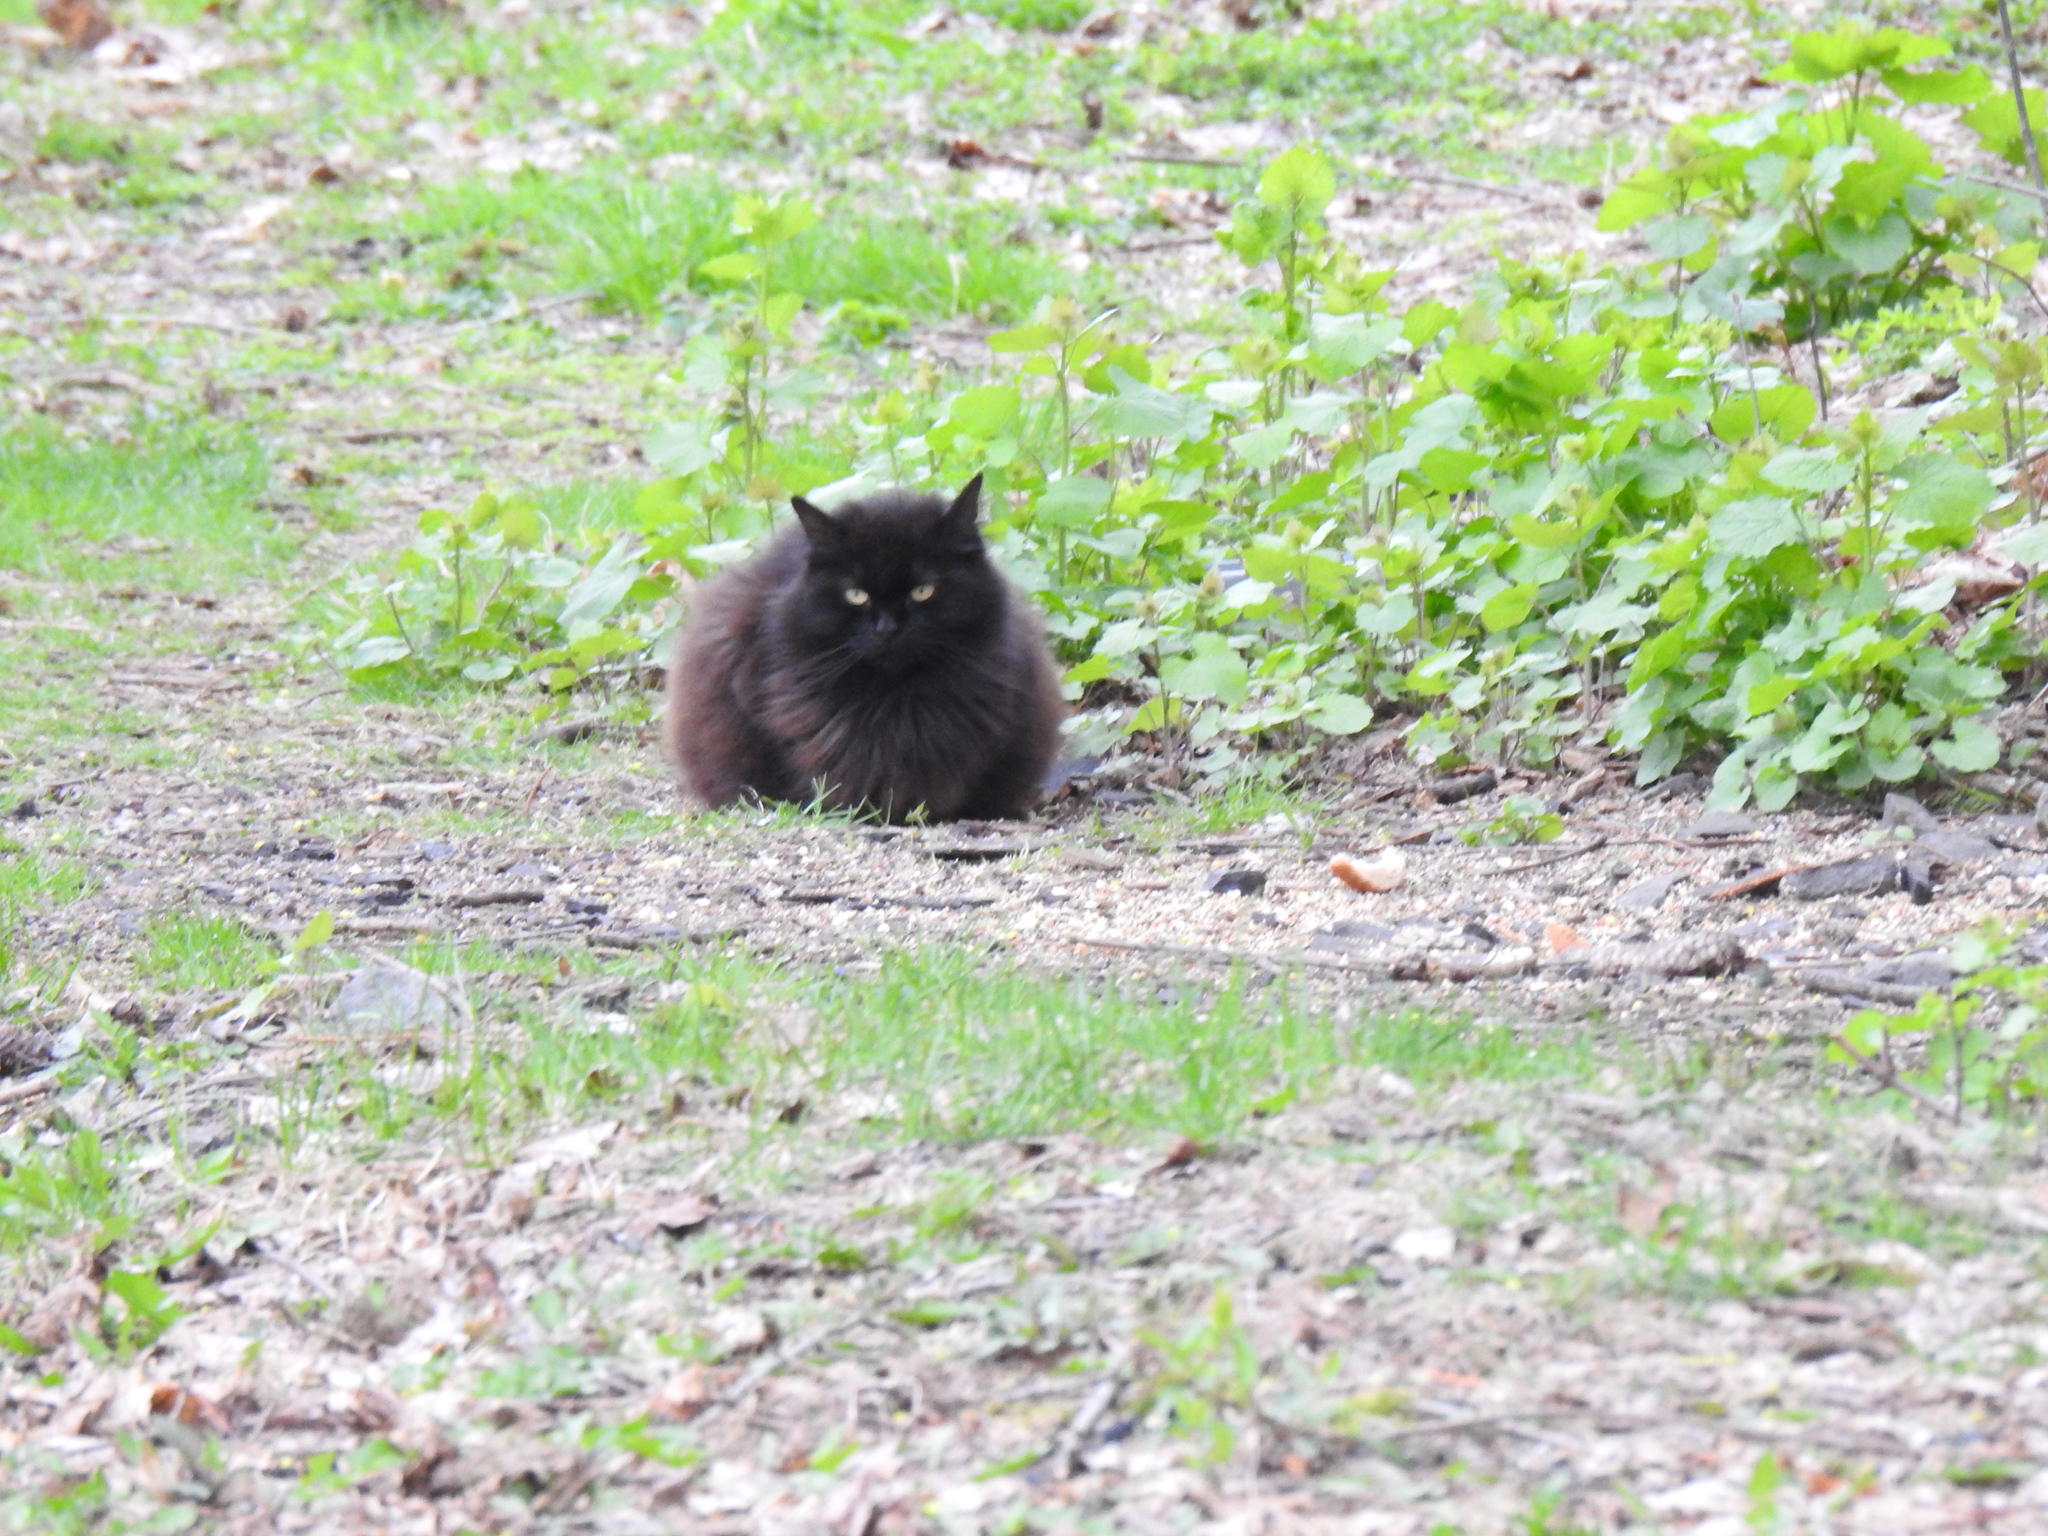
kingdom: Animalia
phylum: Chordata
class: Mammalia
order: Carnivora
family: Felidae
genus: Felis
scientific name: Felis catus
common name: Domestic cat
